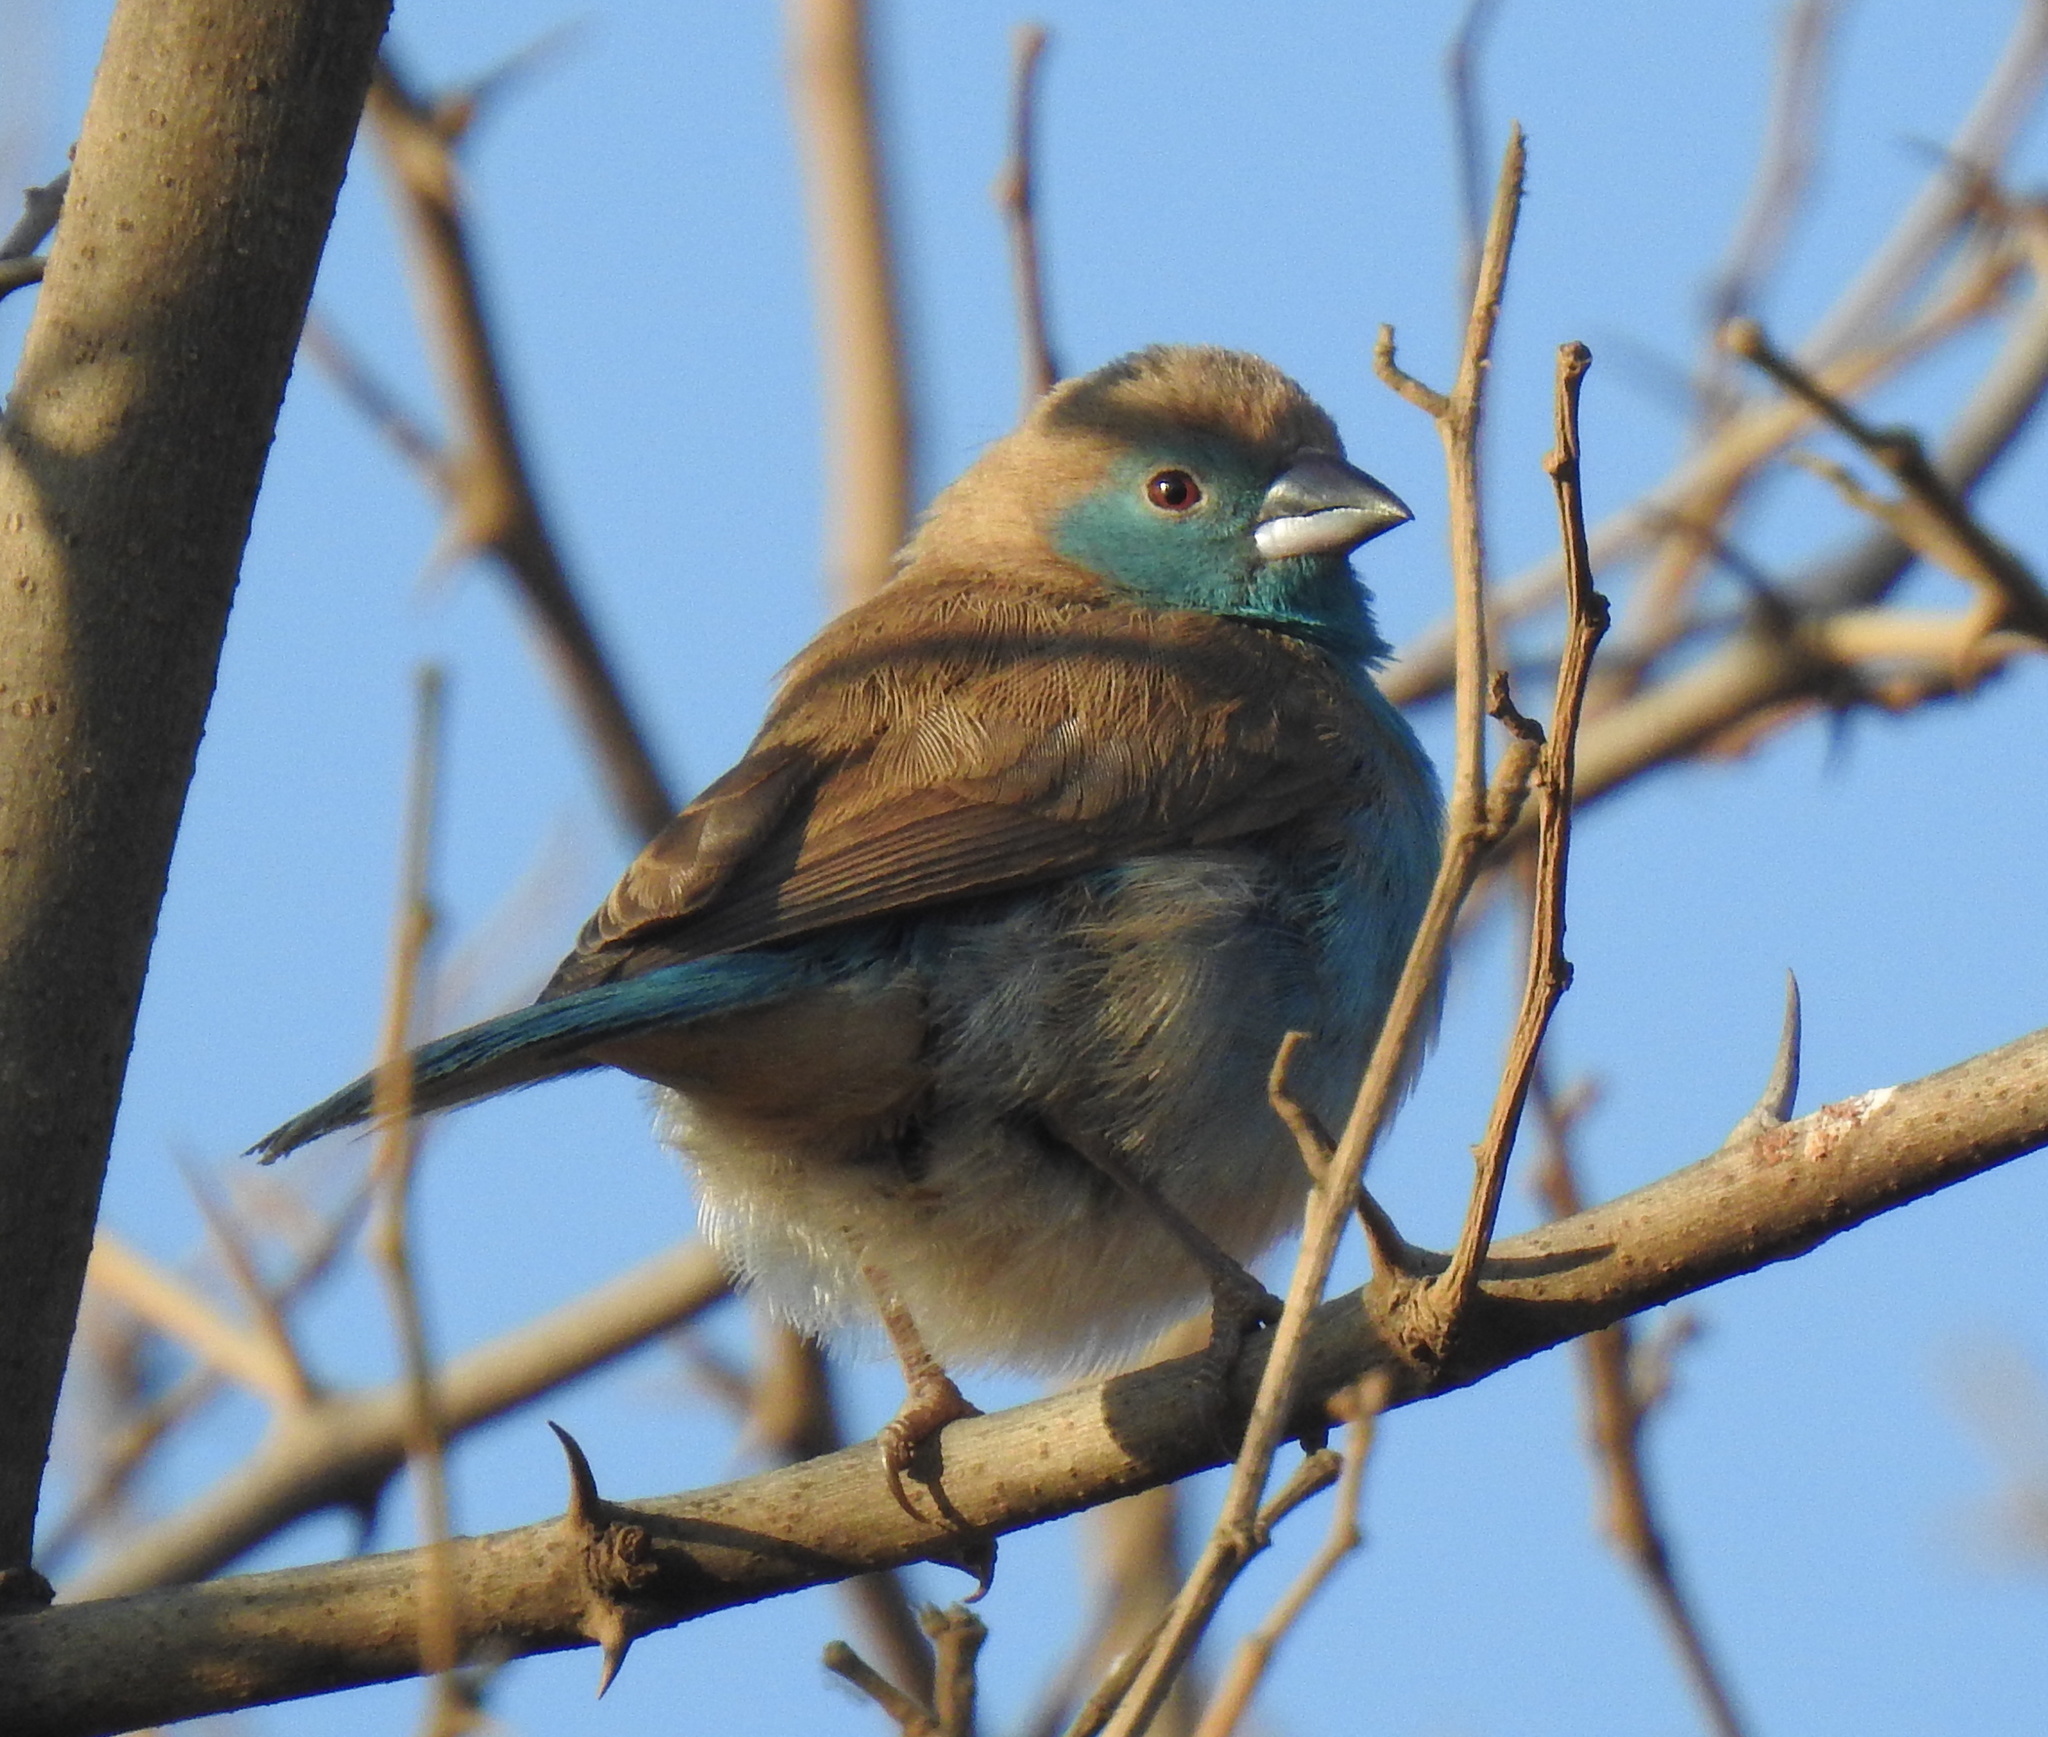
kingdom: Animalia
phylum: Chordata
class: Aves
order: Passeriformes
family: Estrildidae
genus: Uraeginthus
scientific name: Uraeginthus angolensis
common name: Blue waxbill
